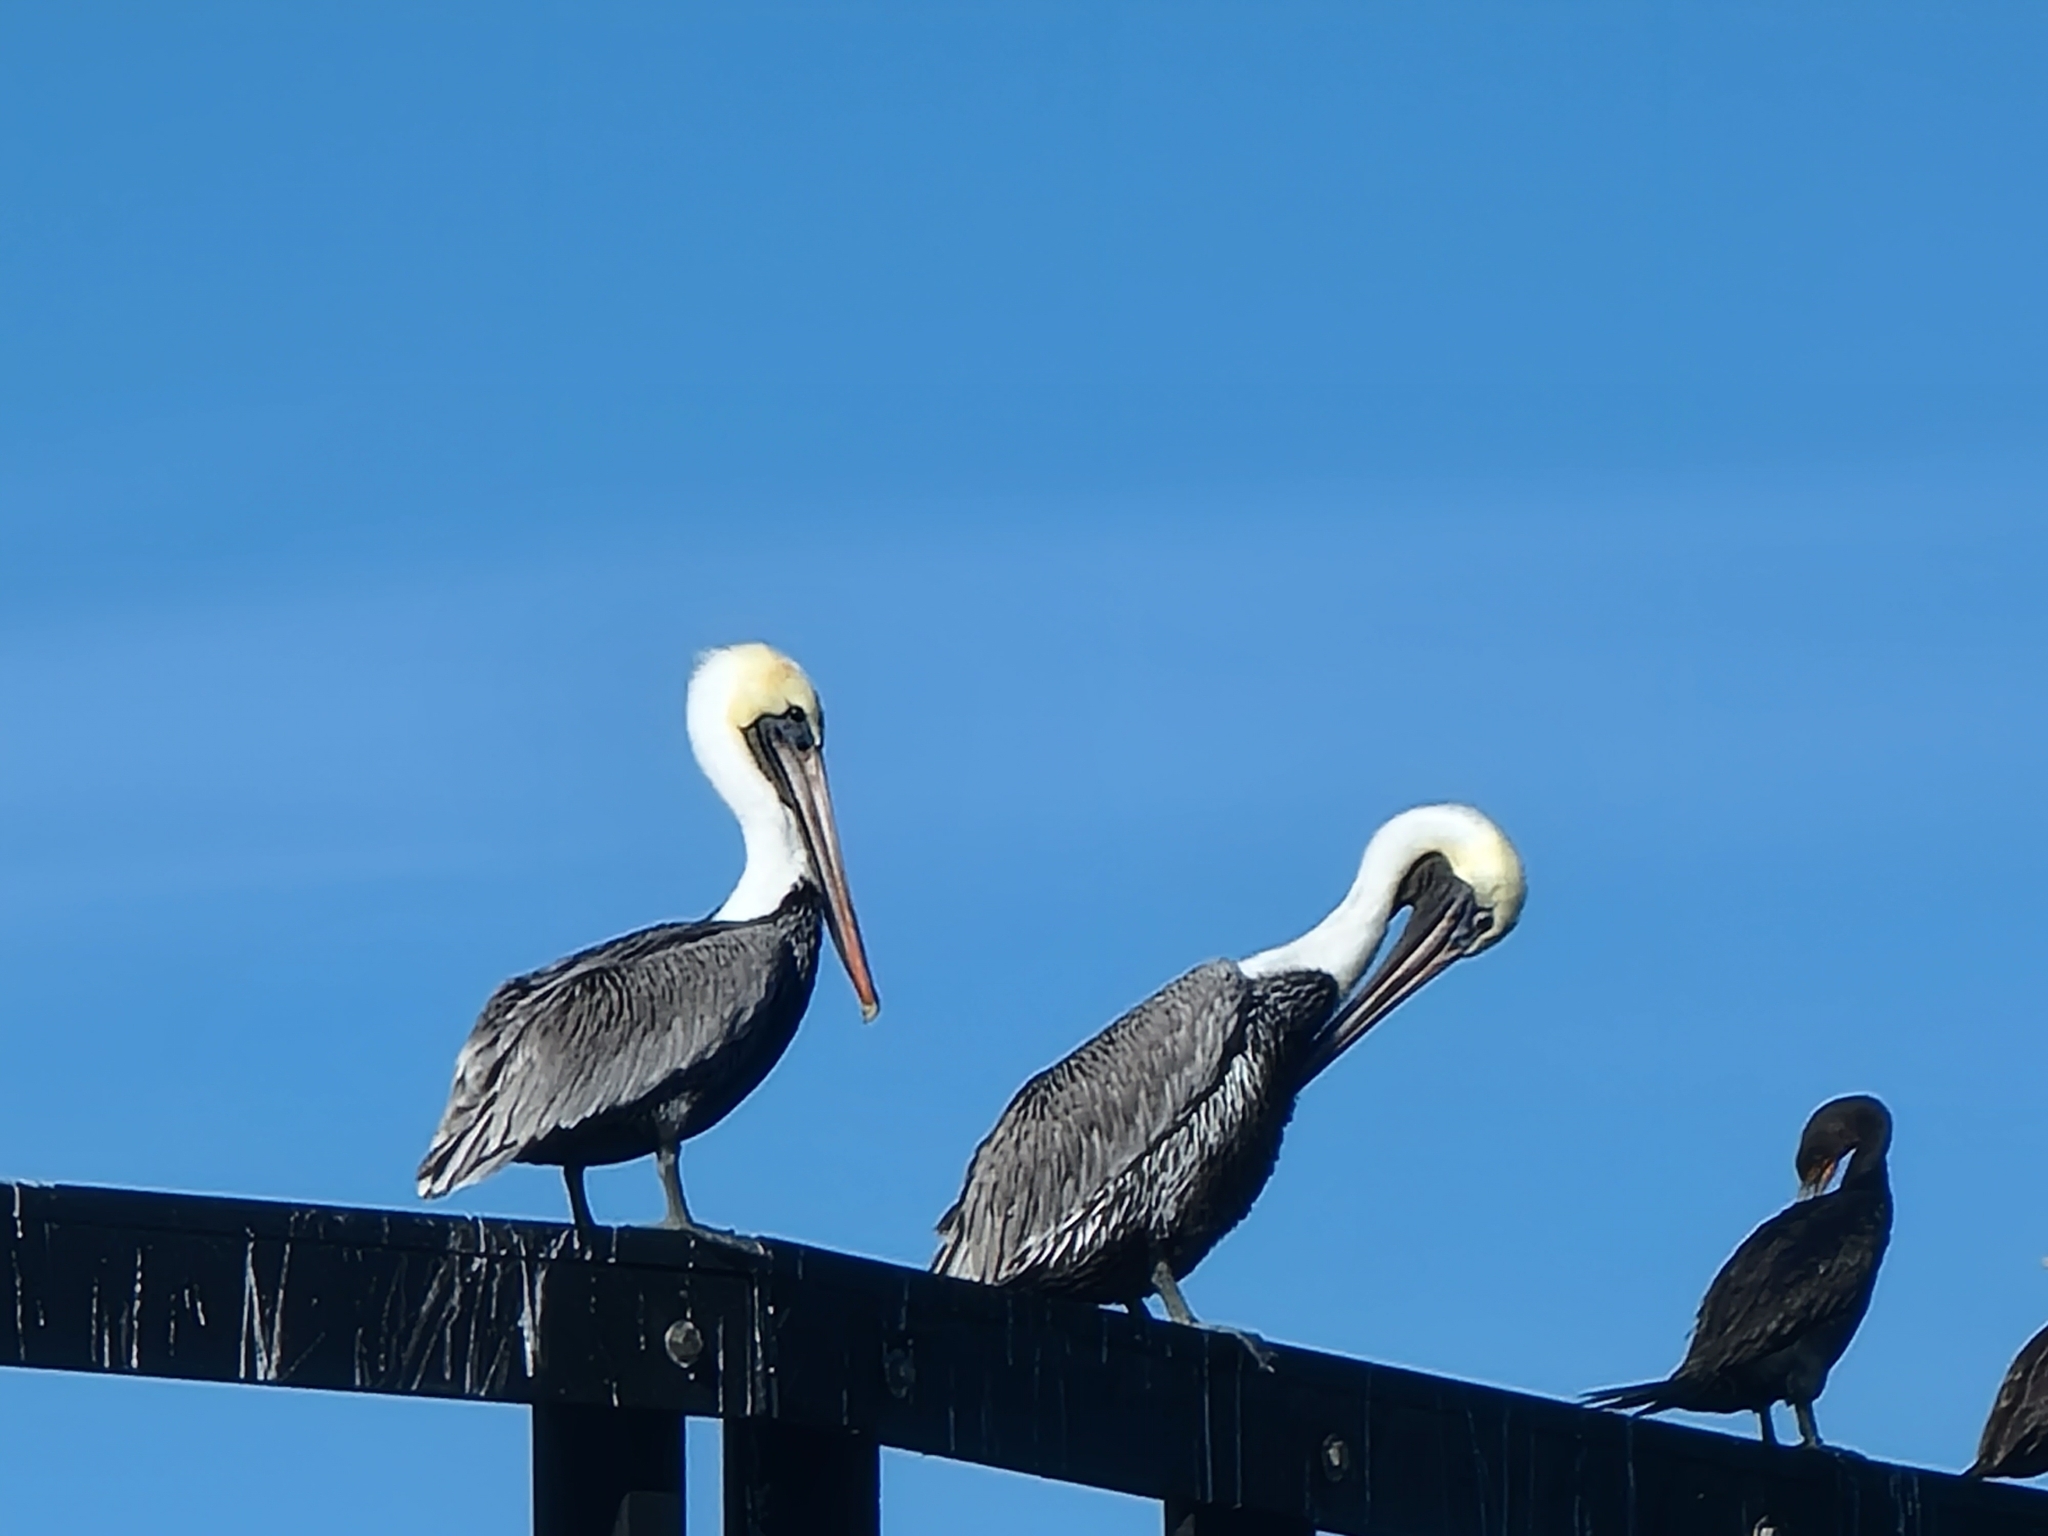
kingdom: Animalia
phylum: Chordata
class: Aves
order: Pelecaniformes
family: Pelecanidae
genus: Pelecanus
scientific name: Pelecanus occidentalis
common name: Brown pelican
